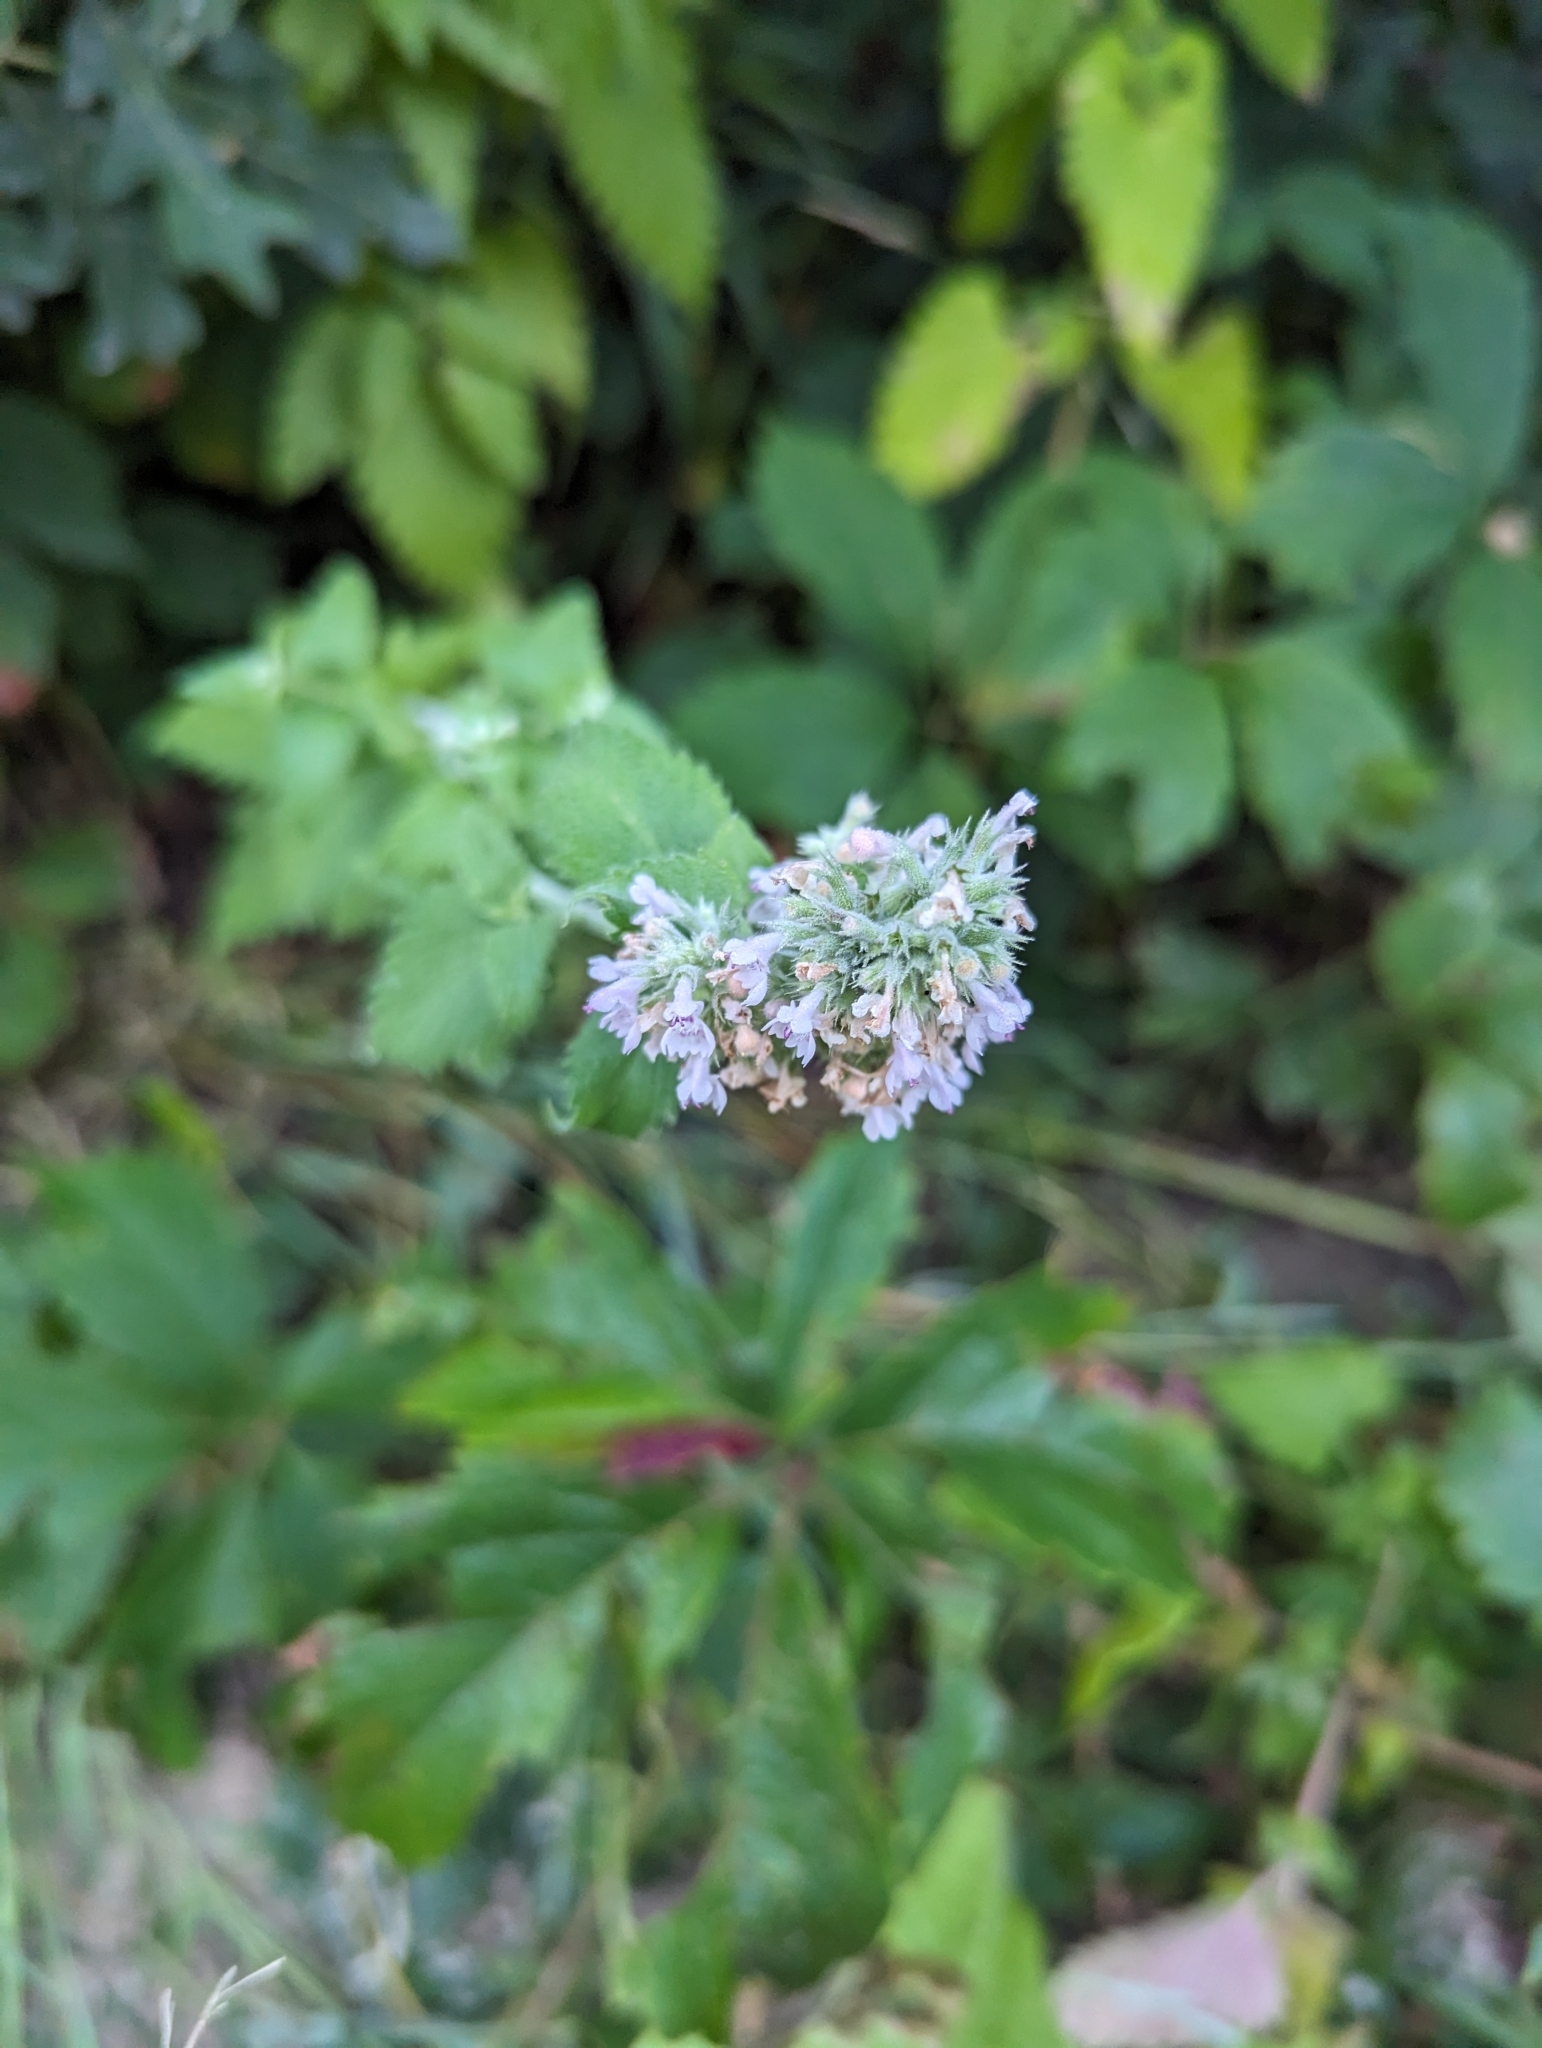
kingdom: Plantae
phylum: Tracheophyta
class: Magnoliopsida
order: Lamiales
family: Lamiaceae
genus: Nepeta
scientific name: Nepeta cataria
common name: Catnip
